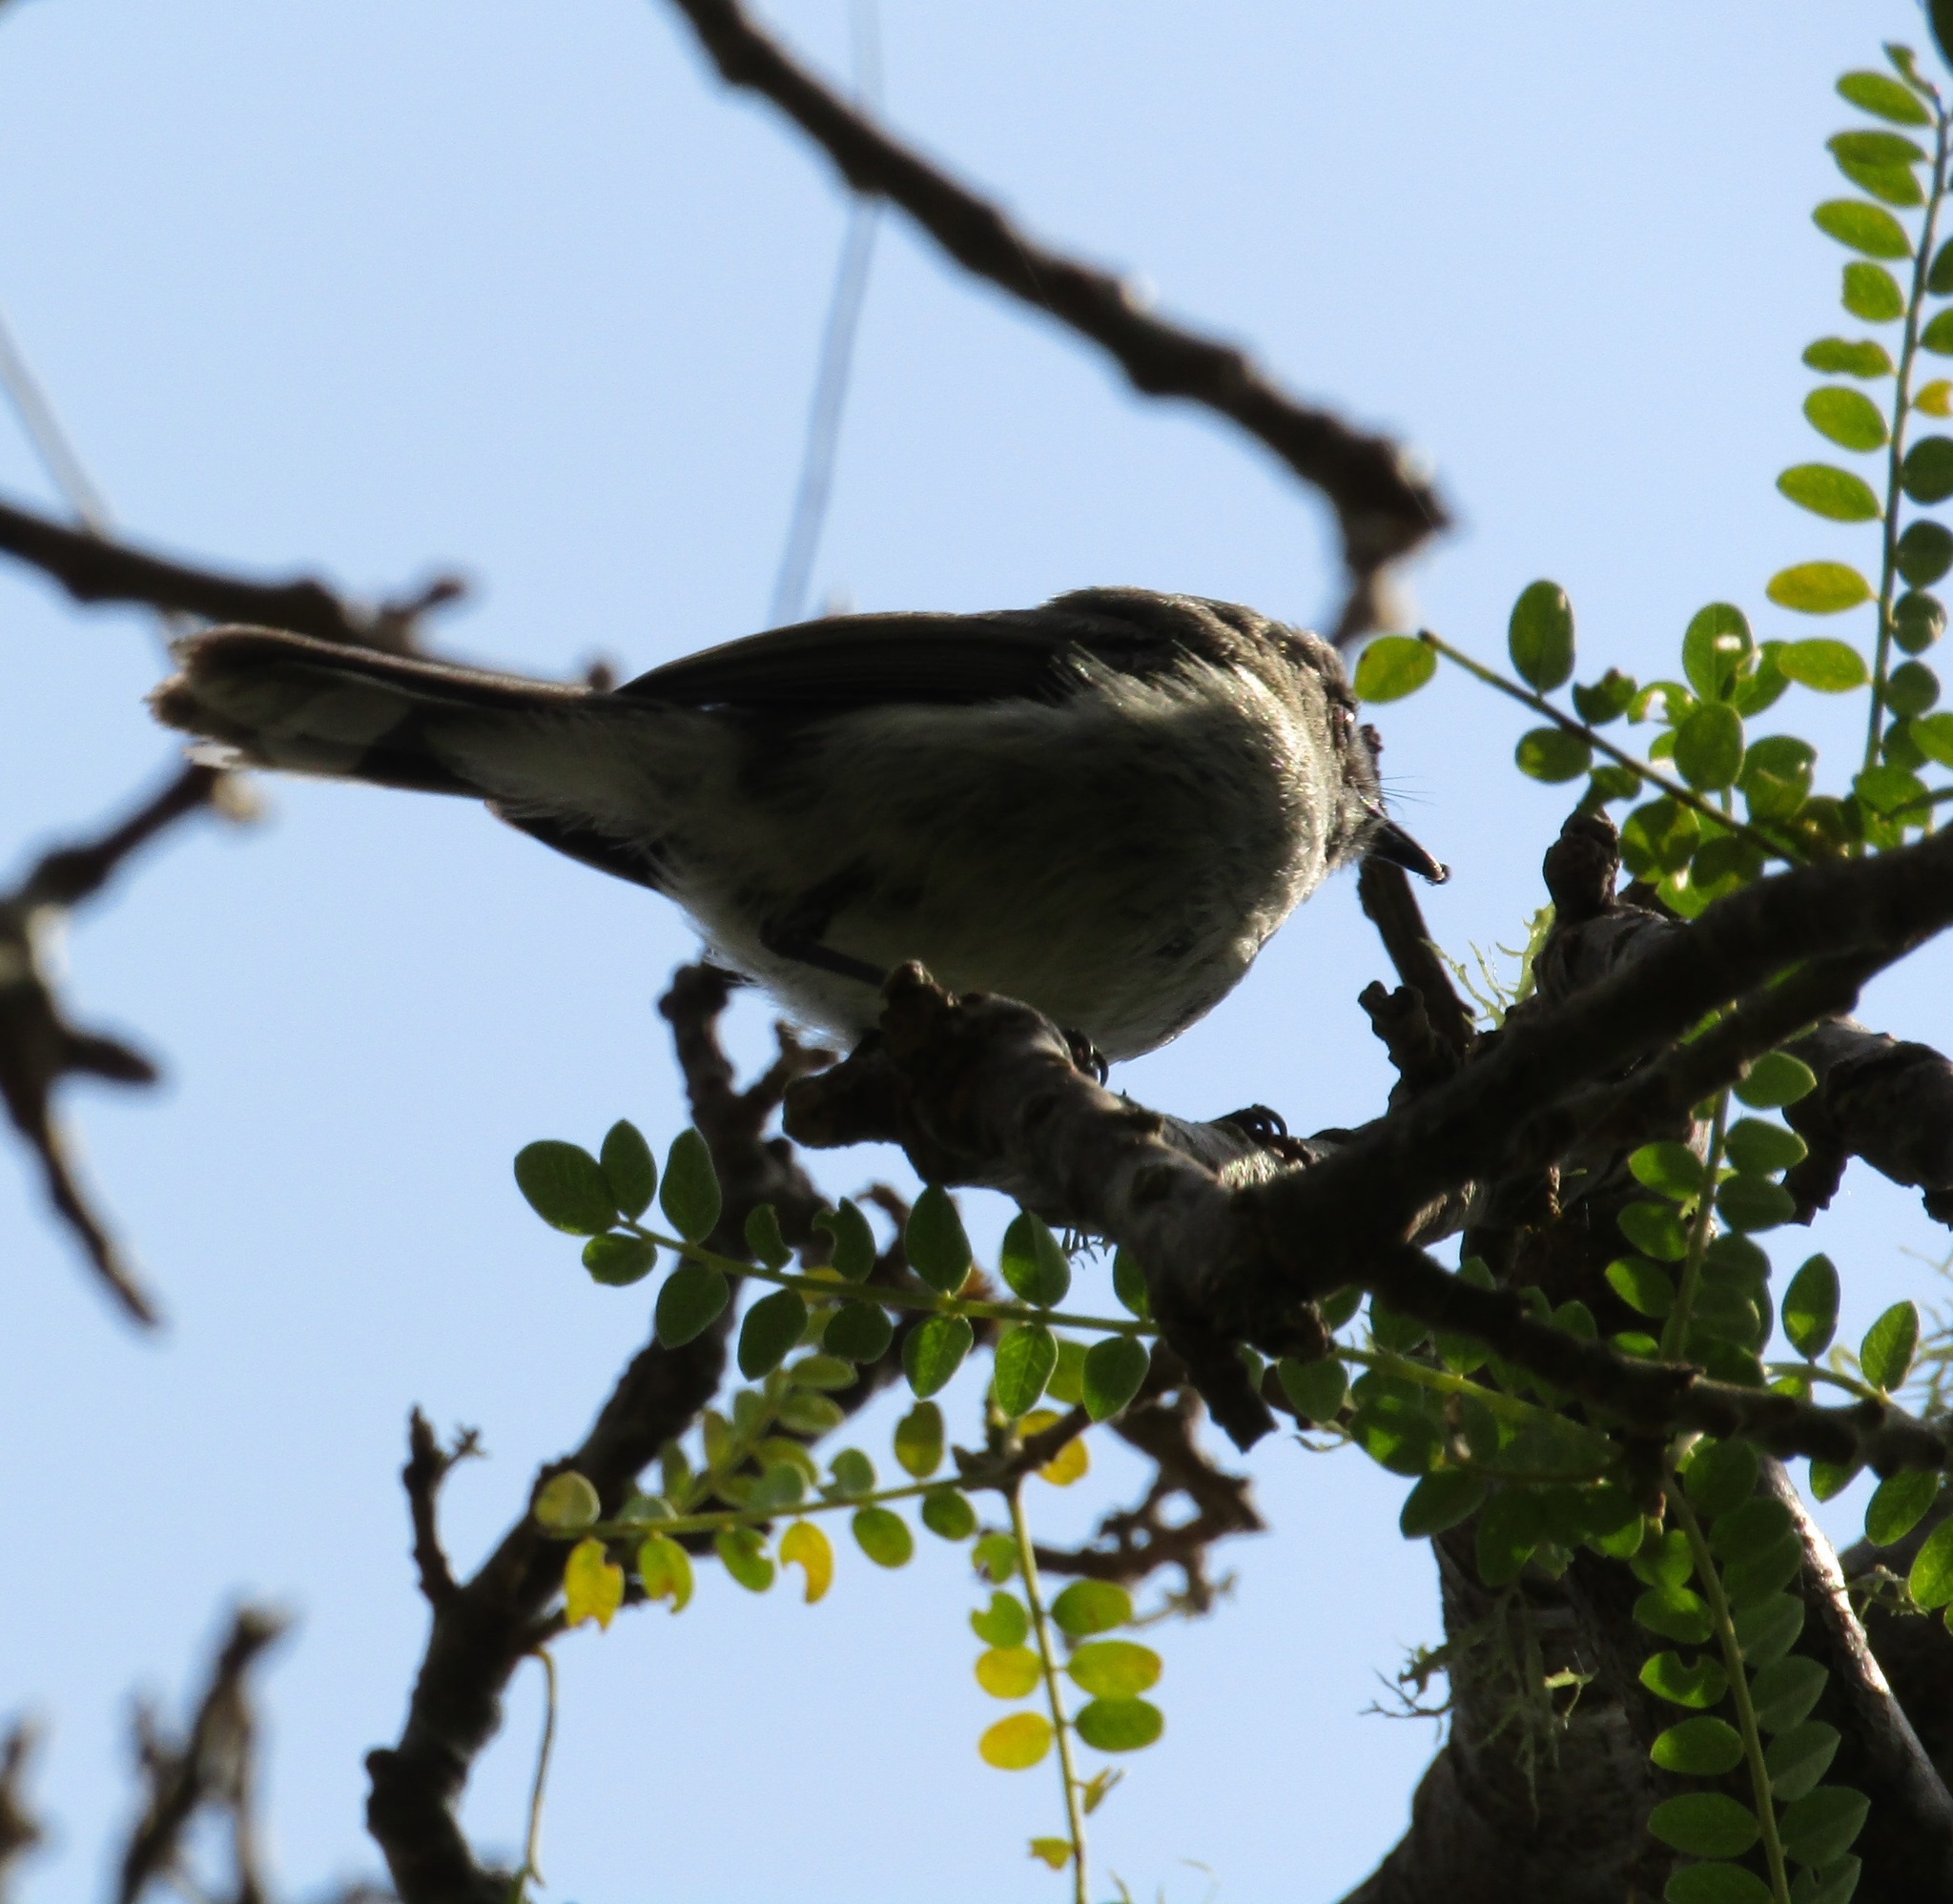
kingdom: Animalia
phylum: Chordata
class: Aves
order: Passeriformes
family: Acanthizidae
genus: Gerygone
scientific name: Gerygone igata
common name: Grey gerygone
